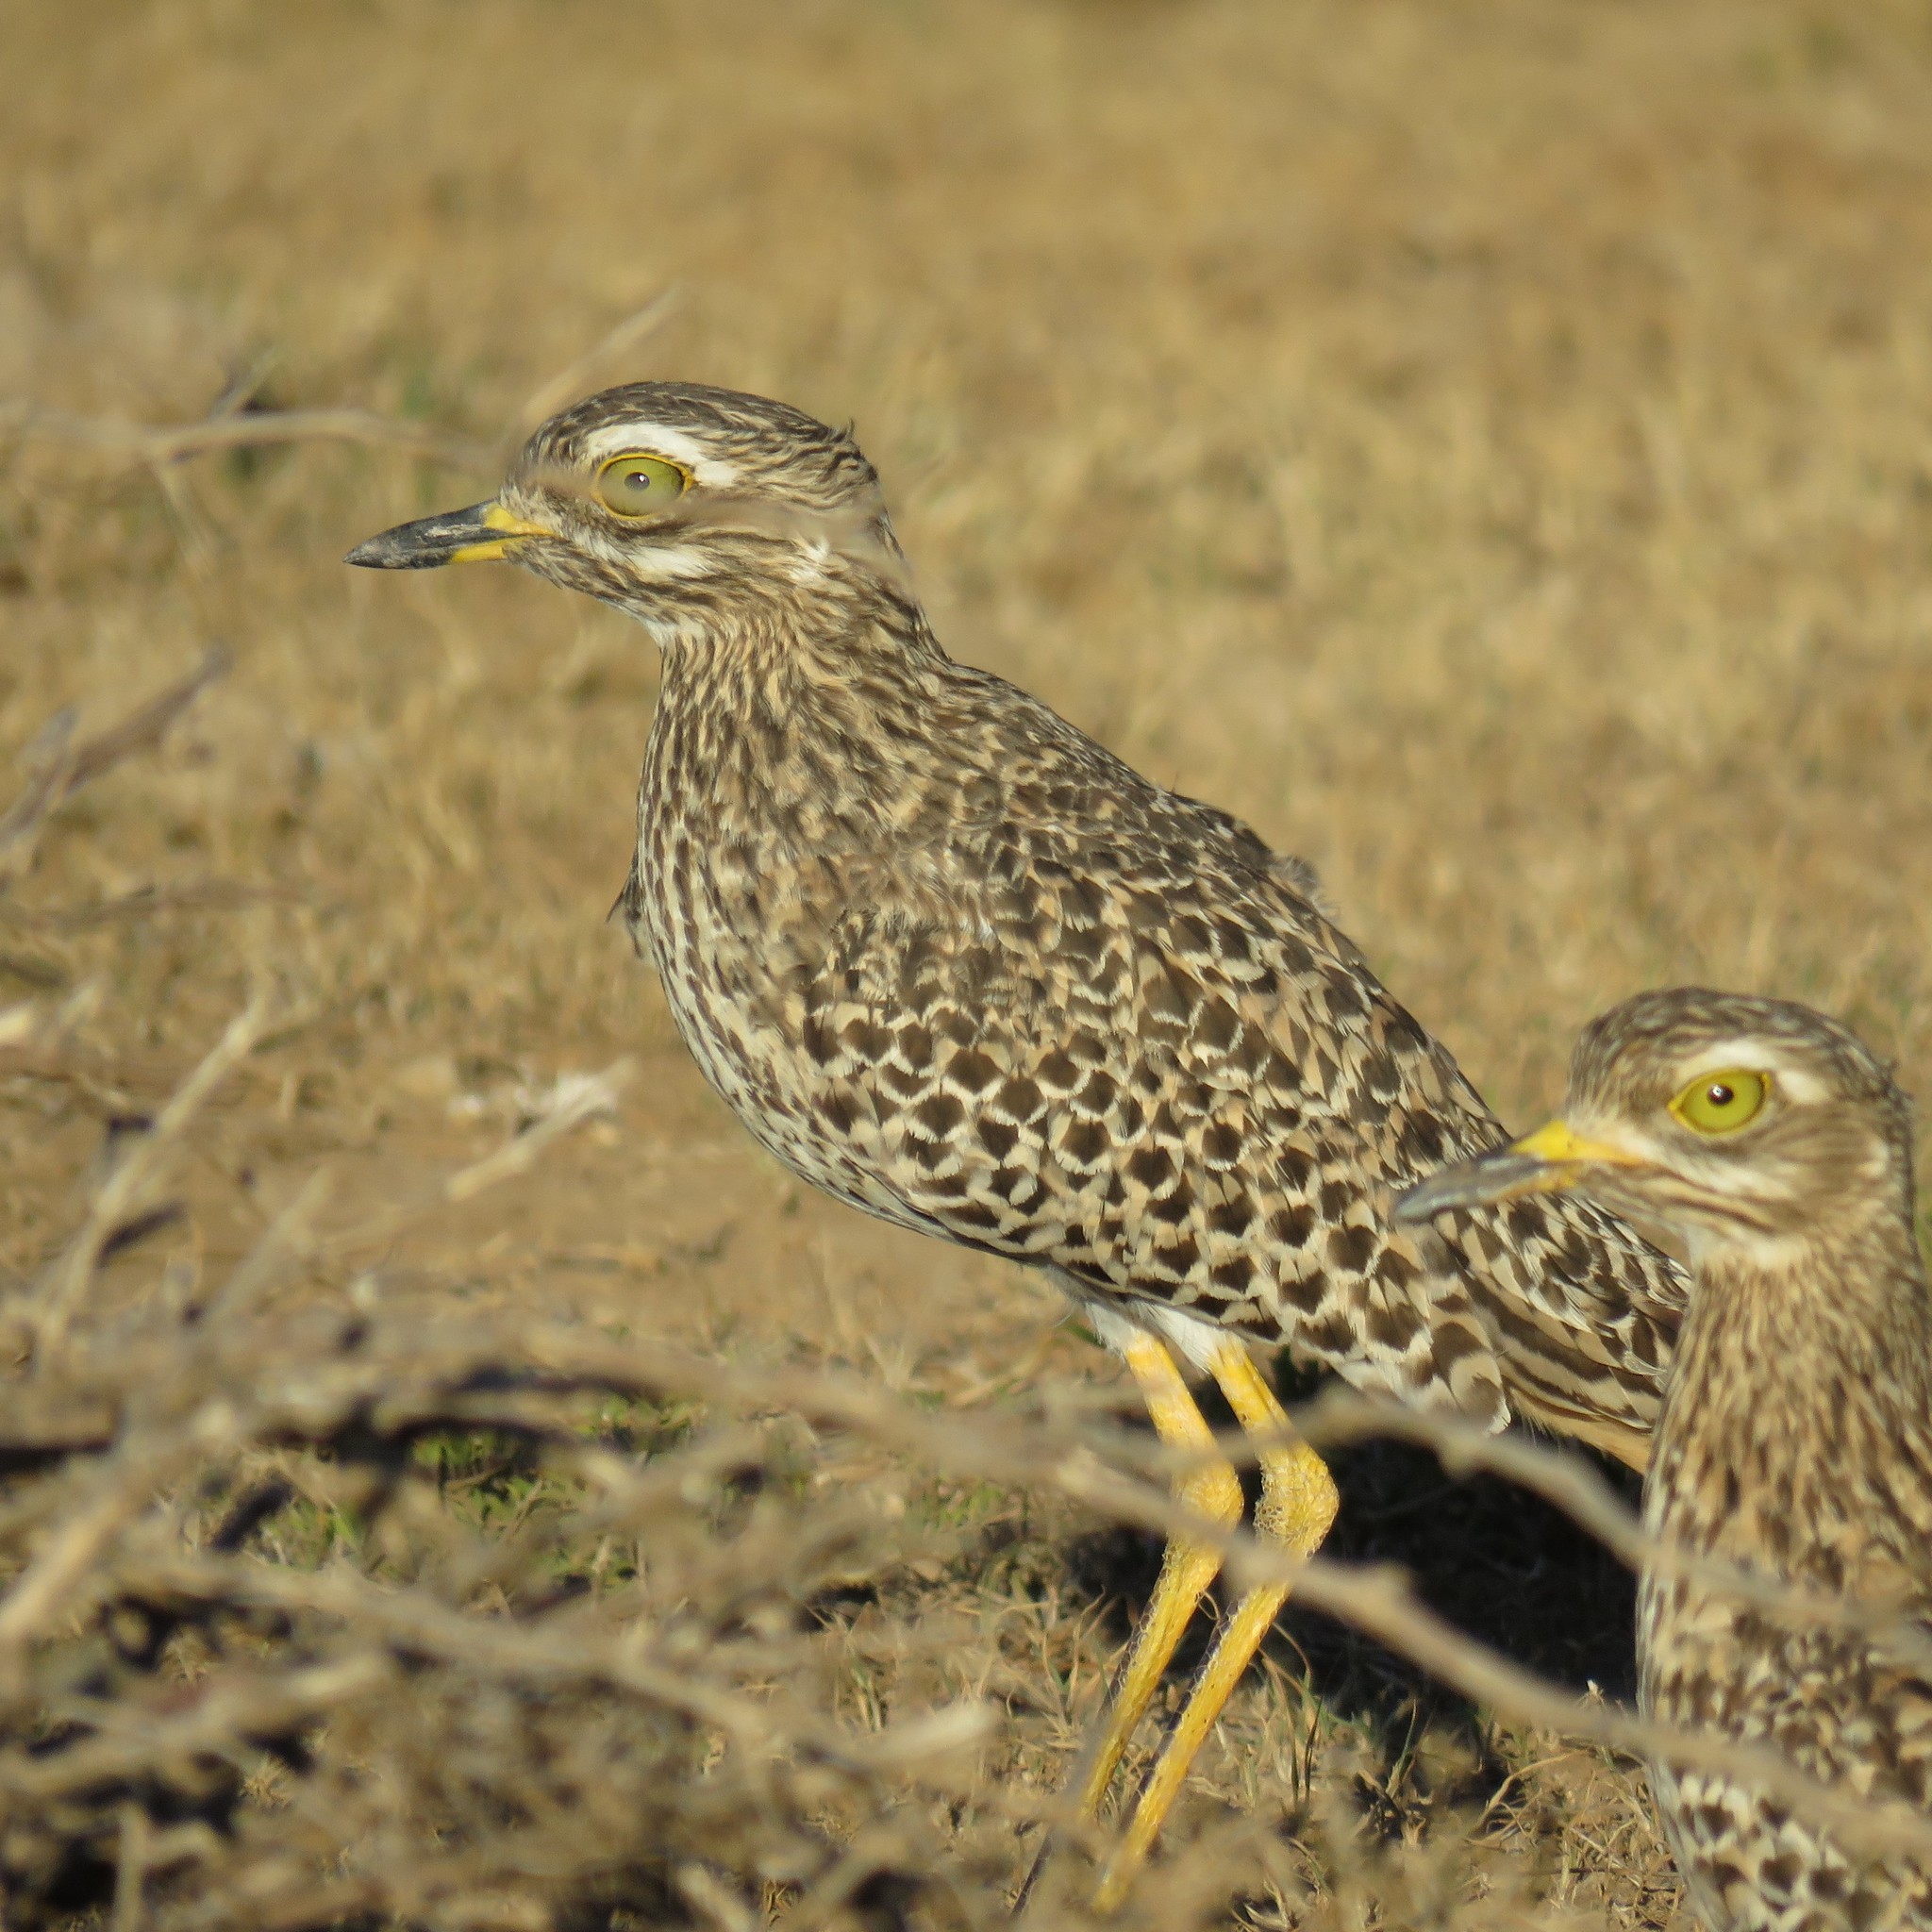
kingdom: Animalia
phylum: Chordata
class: Aves
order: Charadriiformes
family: Burhinidae
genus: Burhinus
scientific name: Burhinus capensis
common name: Spotted thick-knee
